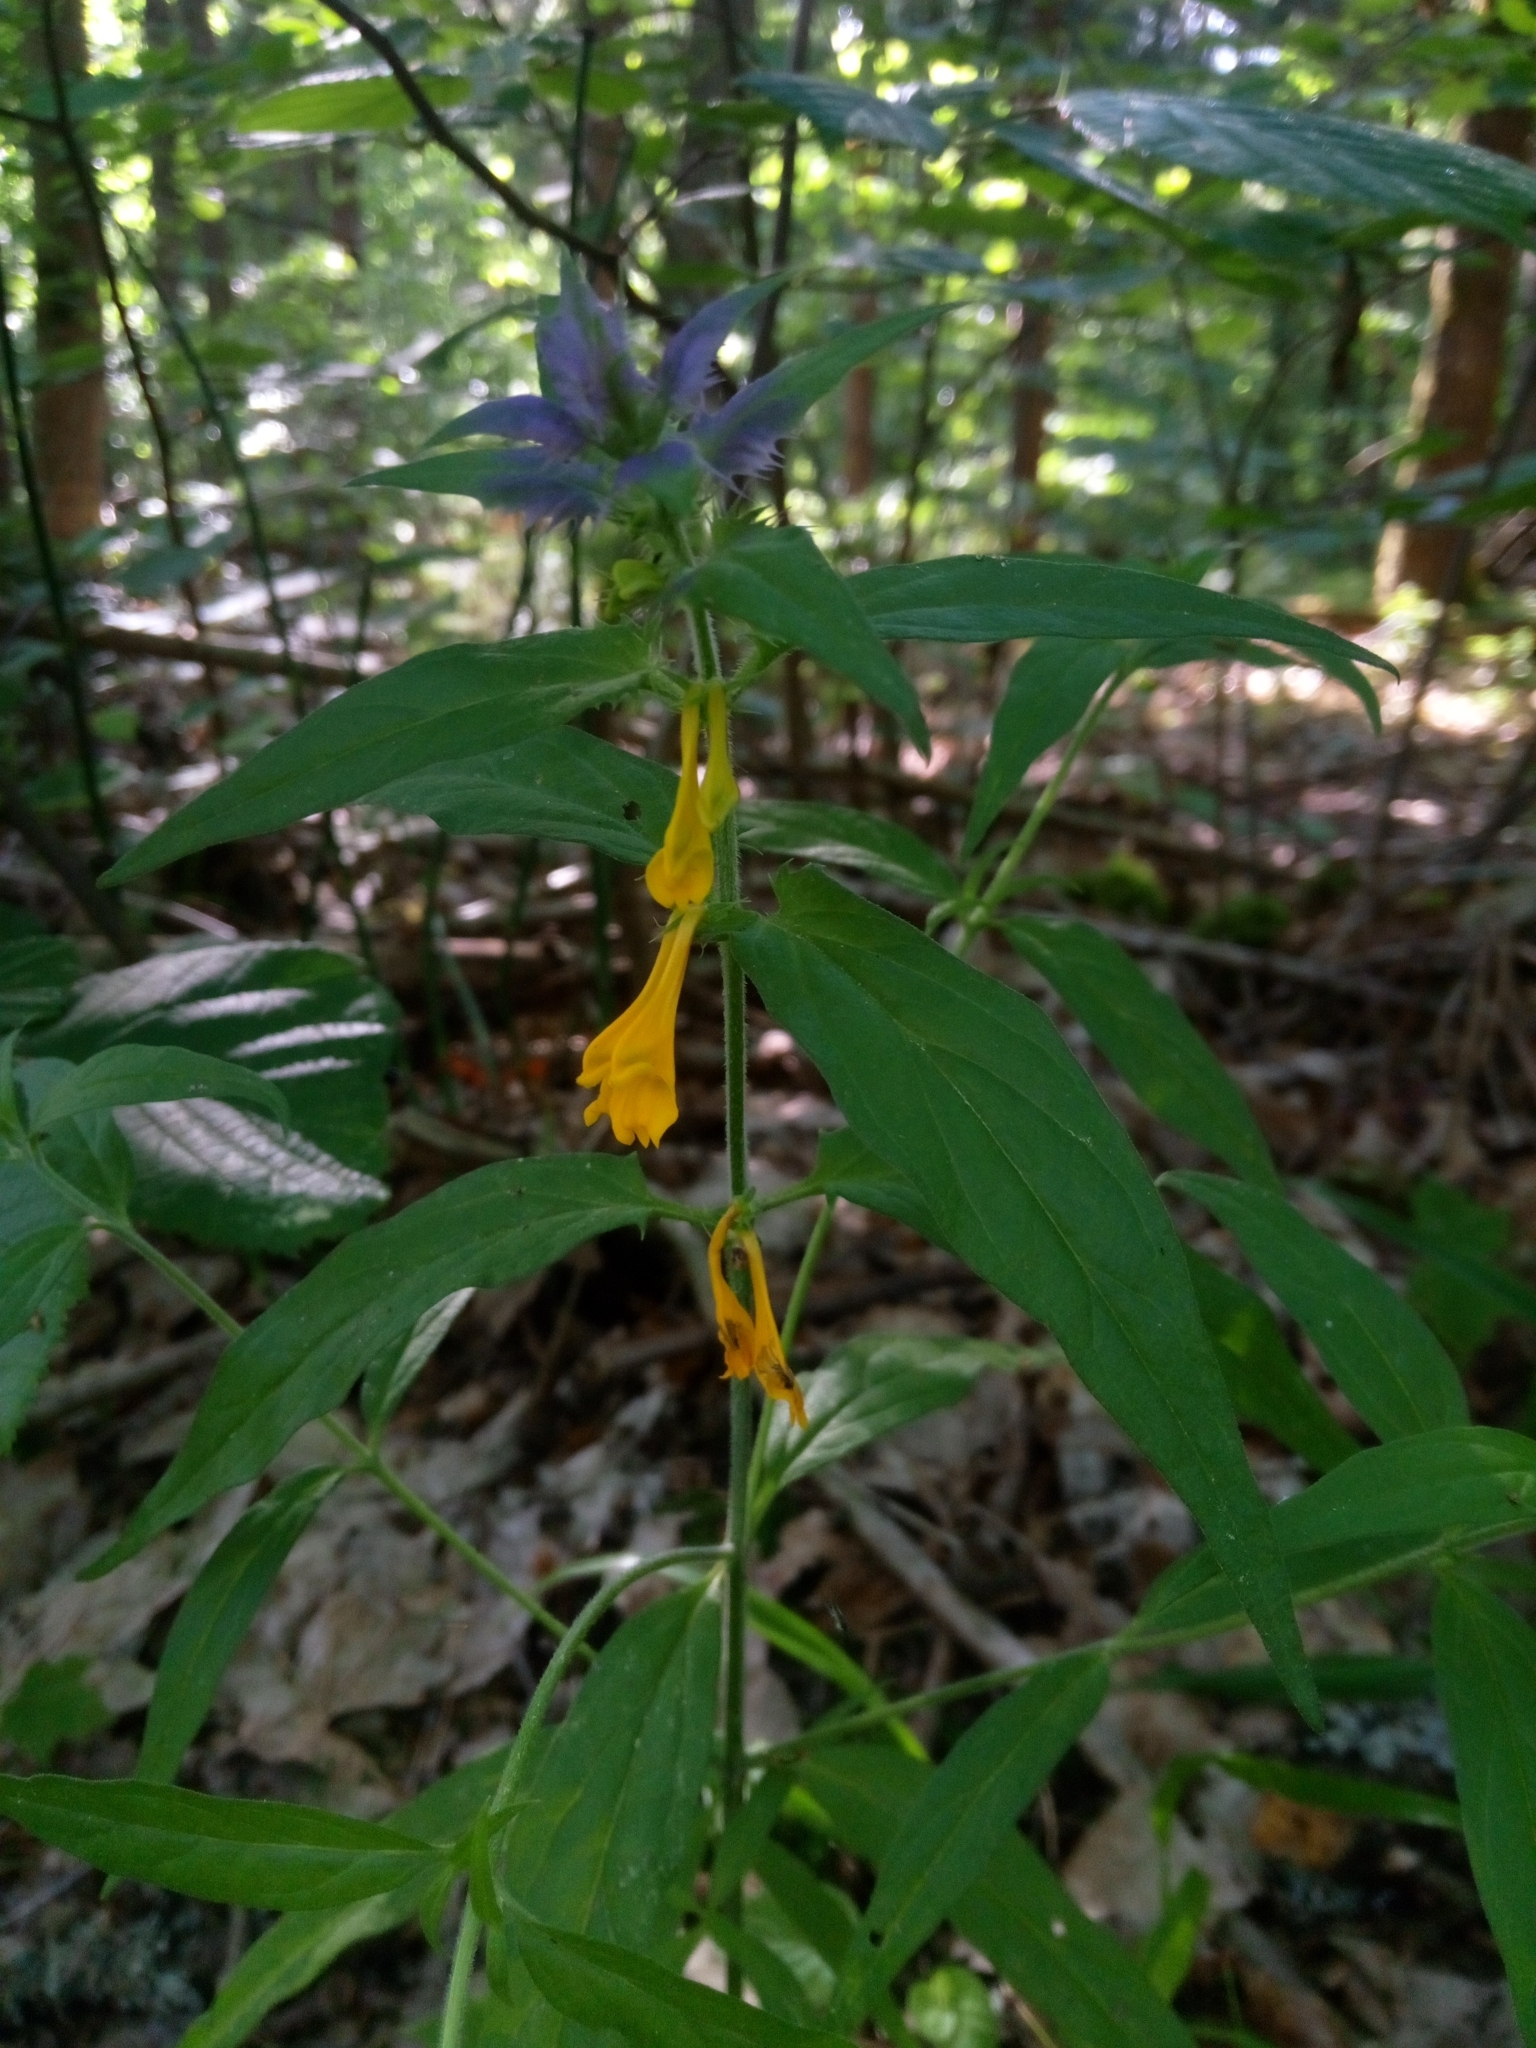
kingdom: Plantae
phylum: Tracheophyta
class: Magnoliopsida
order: Lamiales
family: Orobanchaceae
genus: Melampyrum
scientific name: Melampyrum nemorosum
